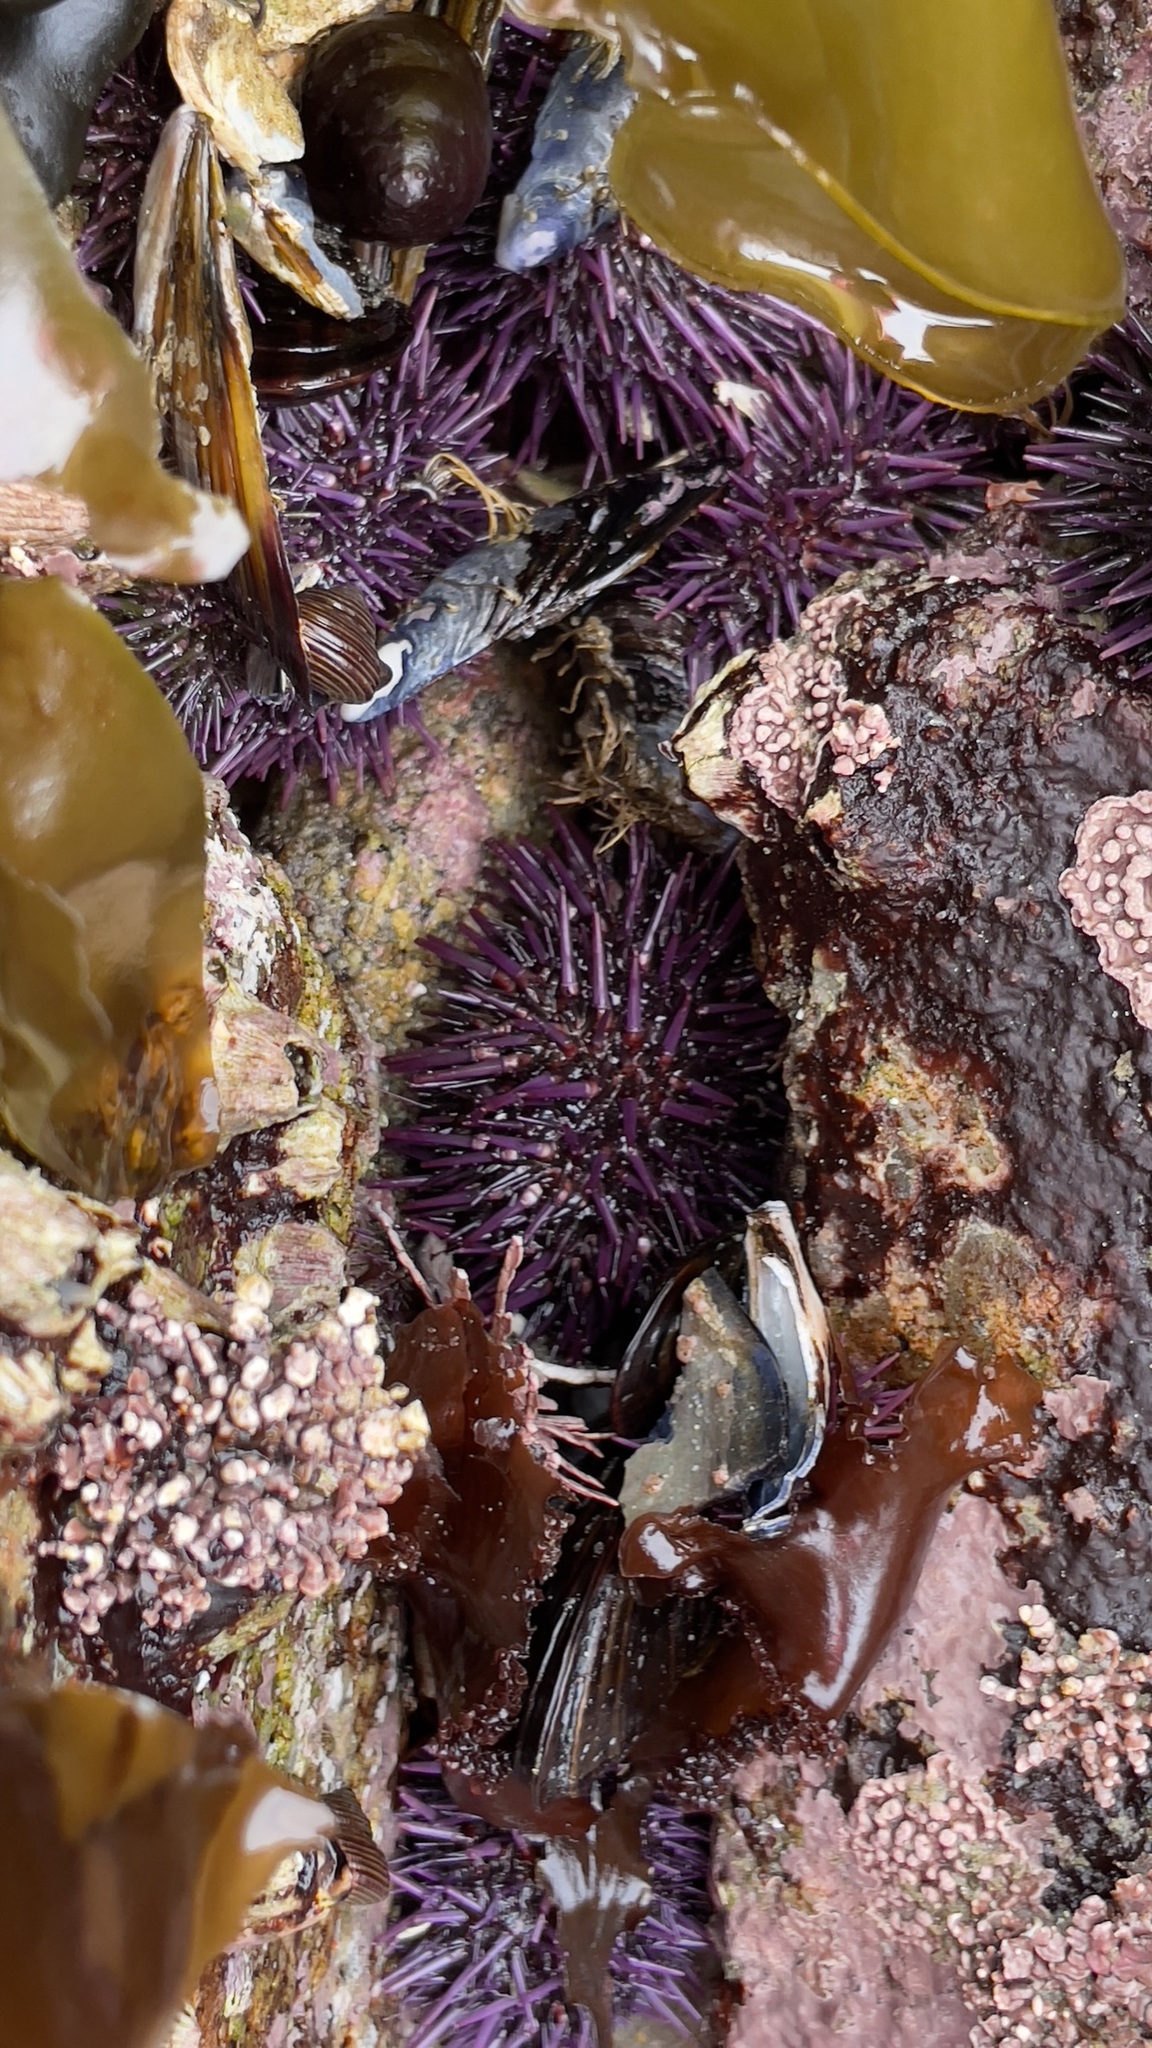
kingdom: Animalia
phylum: Echinodermata
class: Echinoidea
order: Camarodonta
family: Strongylocentrotidae
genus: Strongylocentrotus
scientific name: Strongylocentrotus purpuratus
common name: Purple sea urchin
